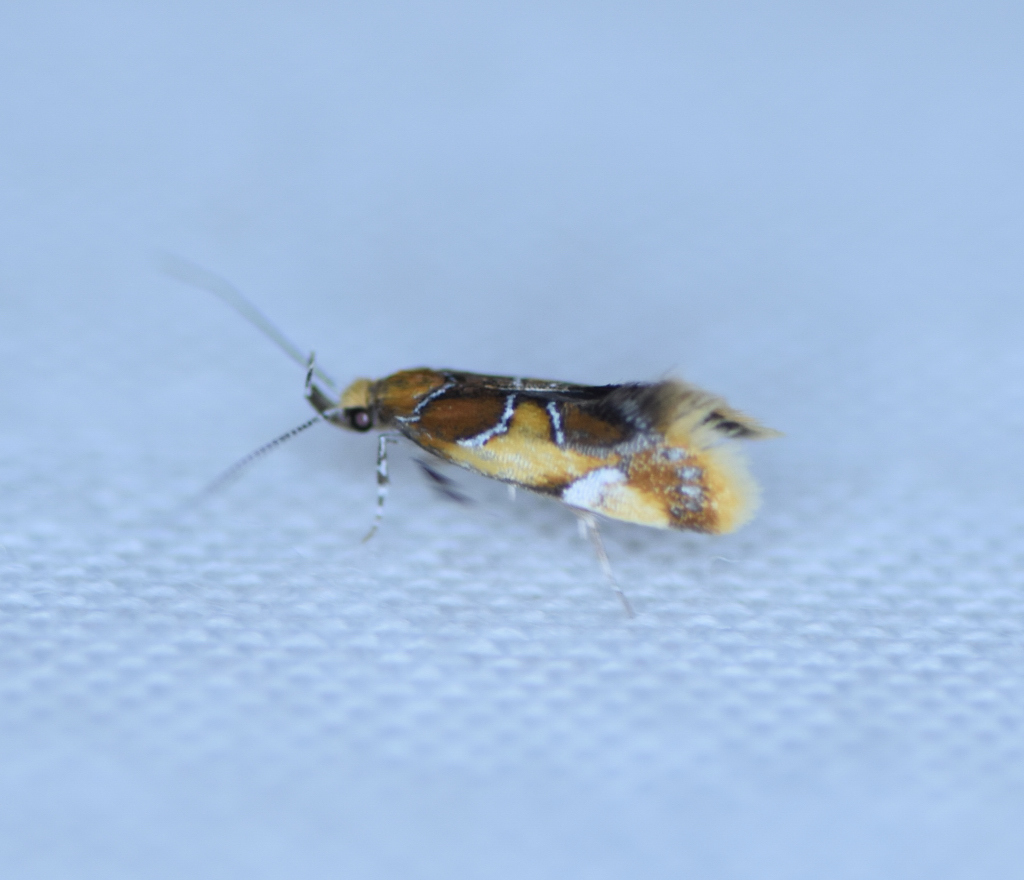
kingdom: Animalia
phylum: Arthropoda
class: Insecta
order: Lepidoptera
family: Oecophoridae
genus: Callima
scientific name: Callima argenticinctella
